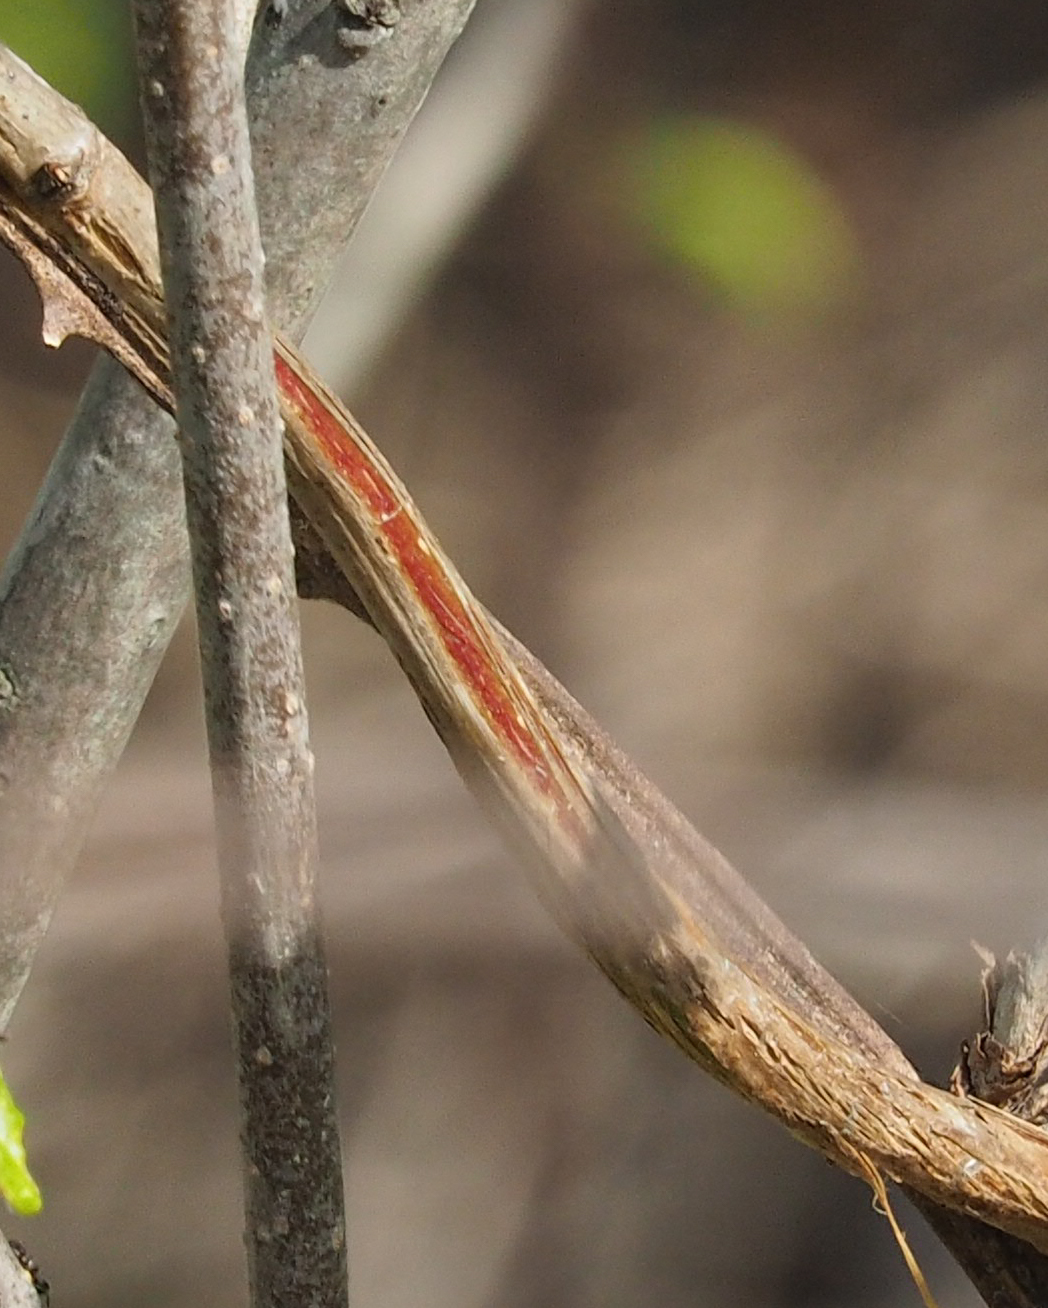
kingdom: Plantae
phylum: Tracheophyta
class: Magnoliopsida
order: Dipsacales
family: Caprifoliaceae
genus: Lonicera
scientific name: Lonicera sempervirens
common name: Coral honeysuckle
